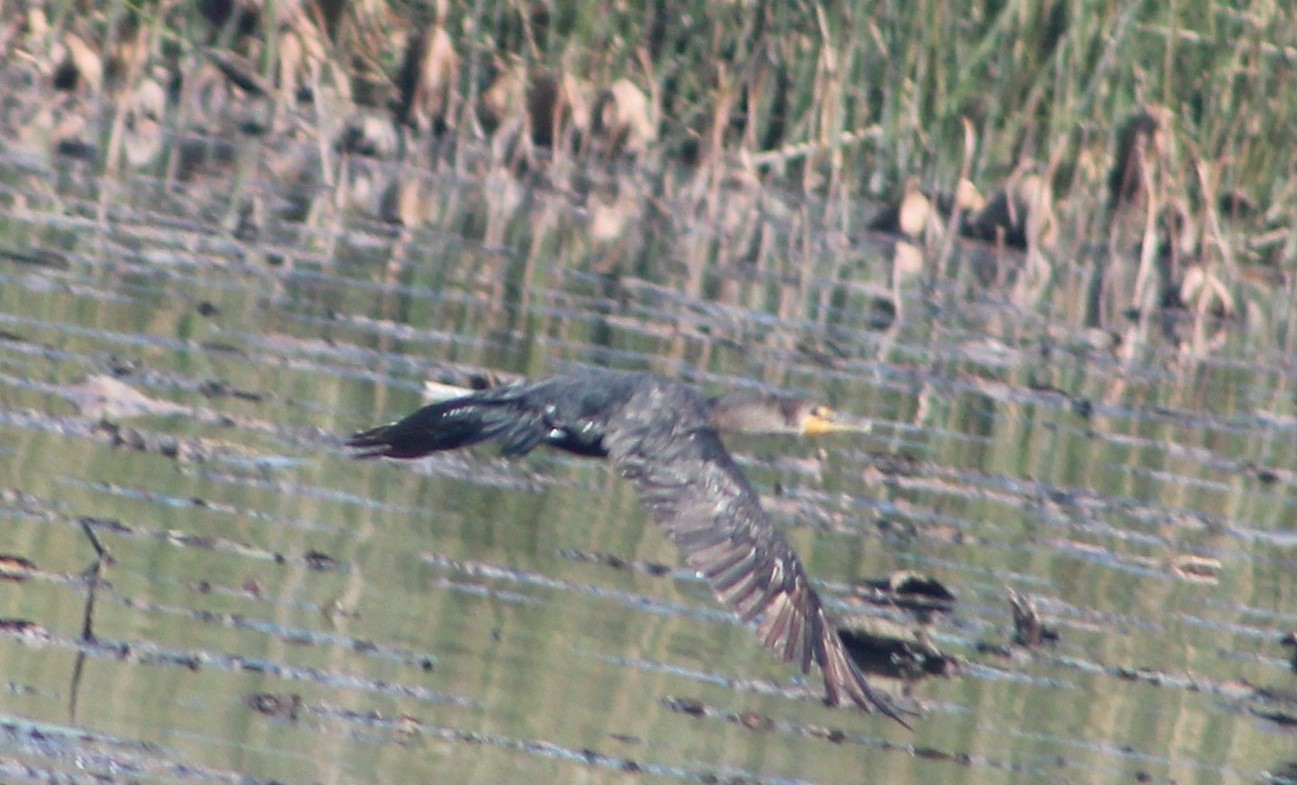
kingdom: Animalia
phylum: Chordata
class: Aves
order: Suliformes
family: Phalacrocoracidae
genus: Phalacrocorax
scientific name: Phalacrocorax auritus
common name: Double-crested cormorant
